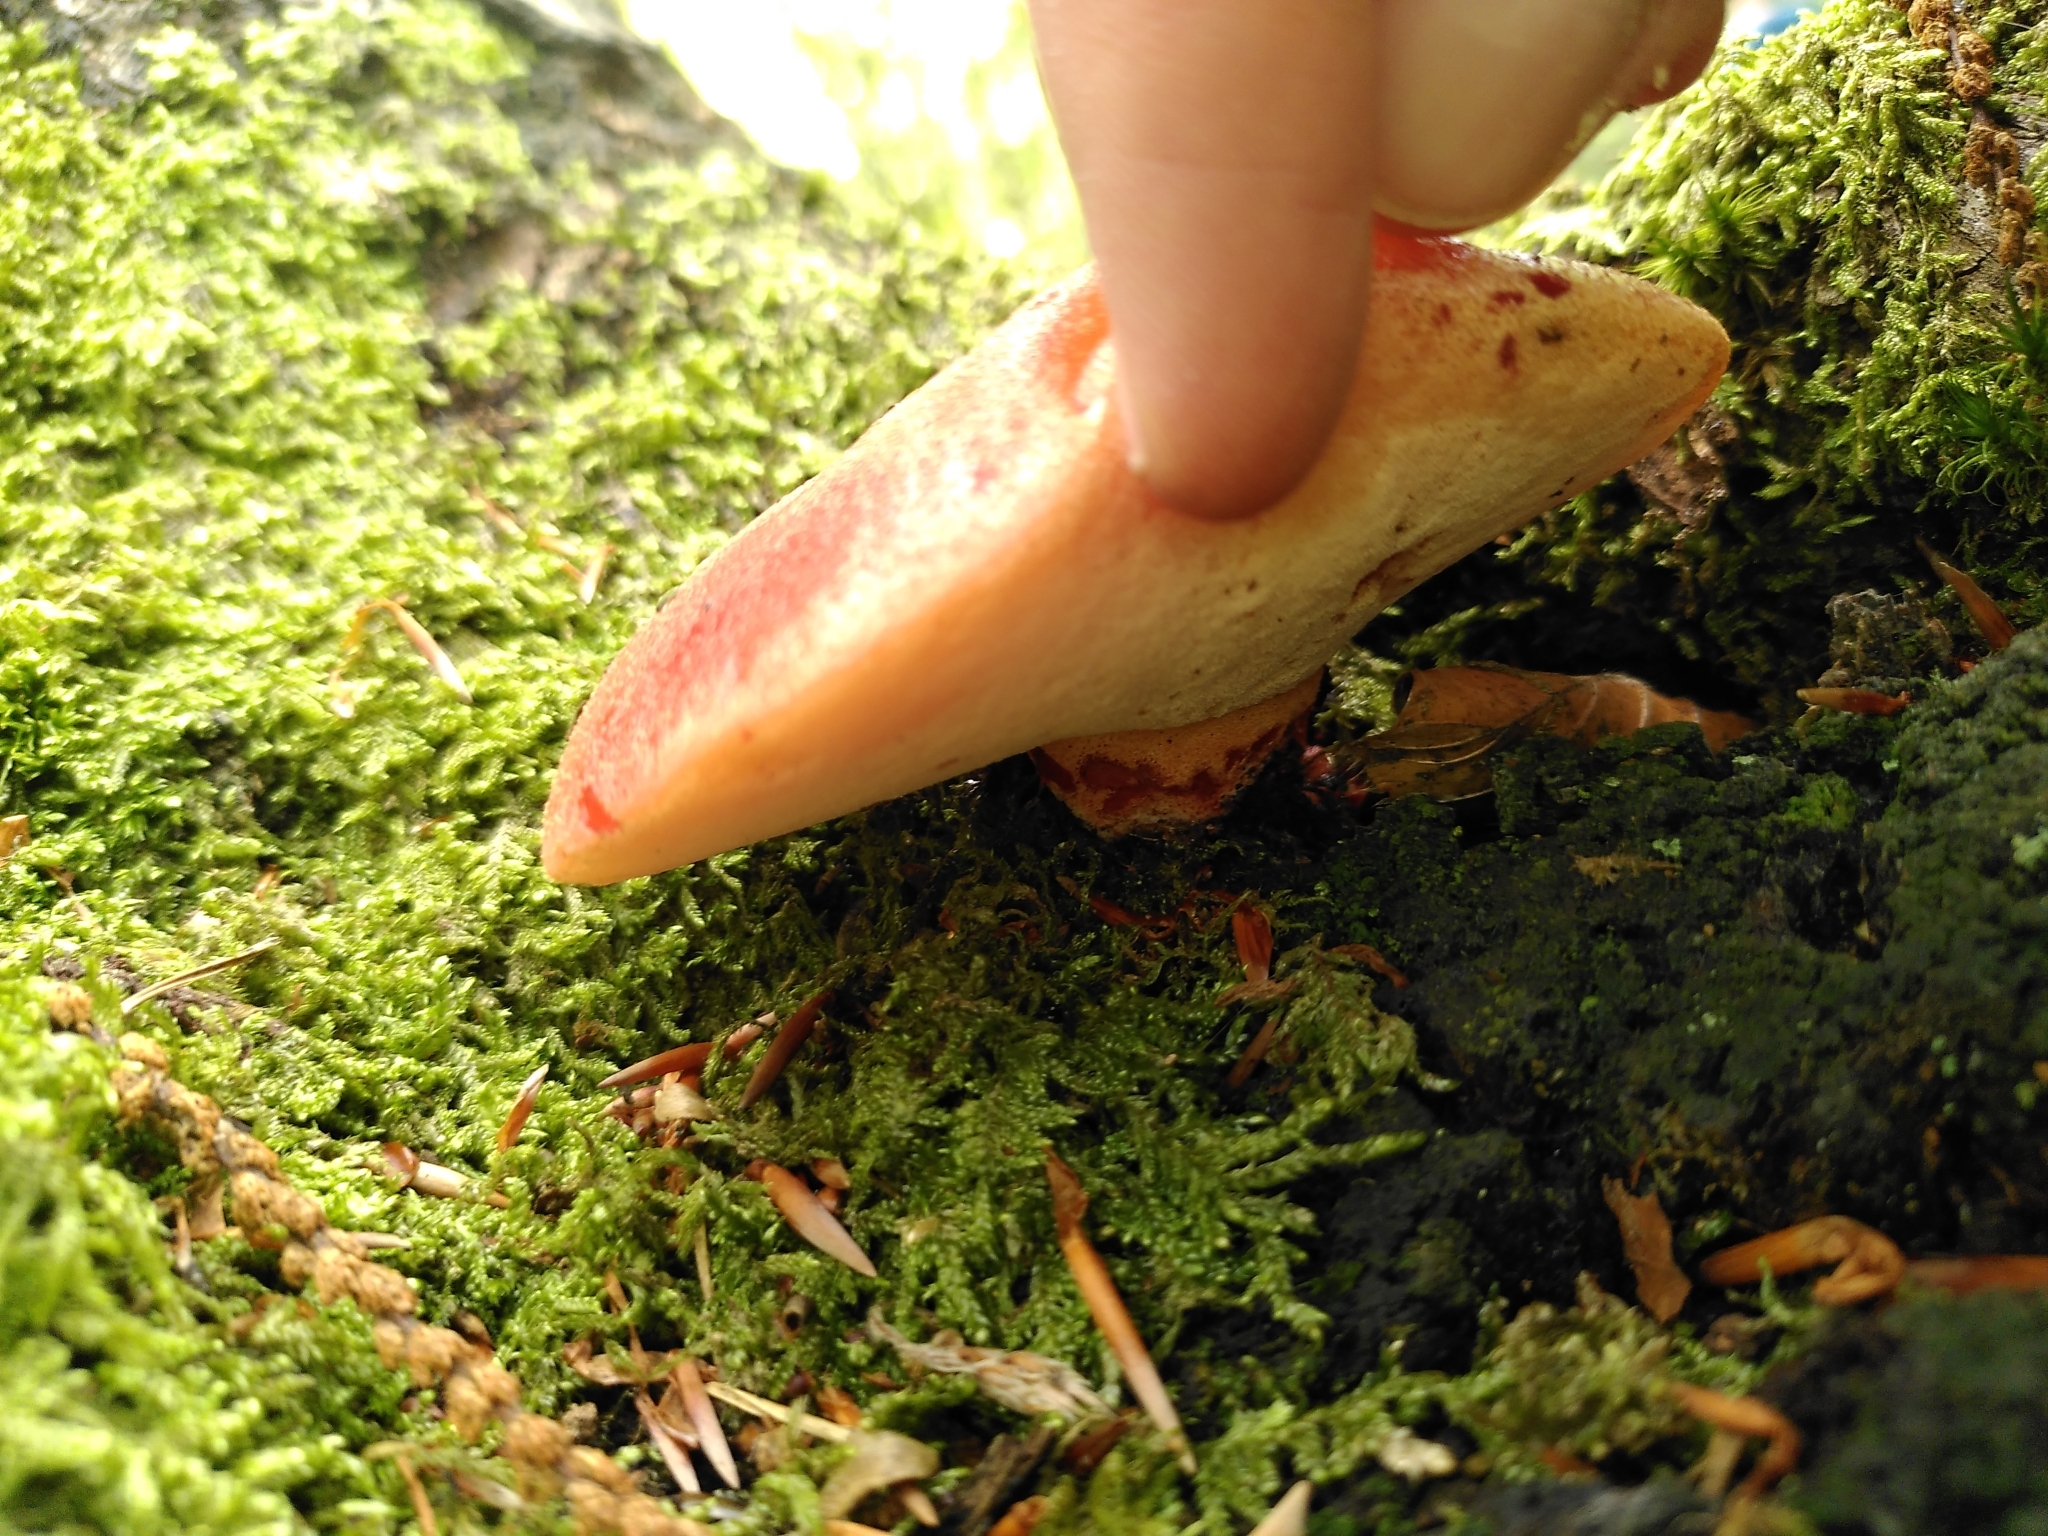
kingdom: Fungi
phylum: Basidiomycota
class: Agaricomycetes
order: Agaricales
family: Fistulinaceae
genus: Fistulina
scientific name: Fistulina hepatica
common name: Beef-steak fungus
